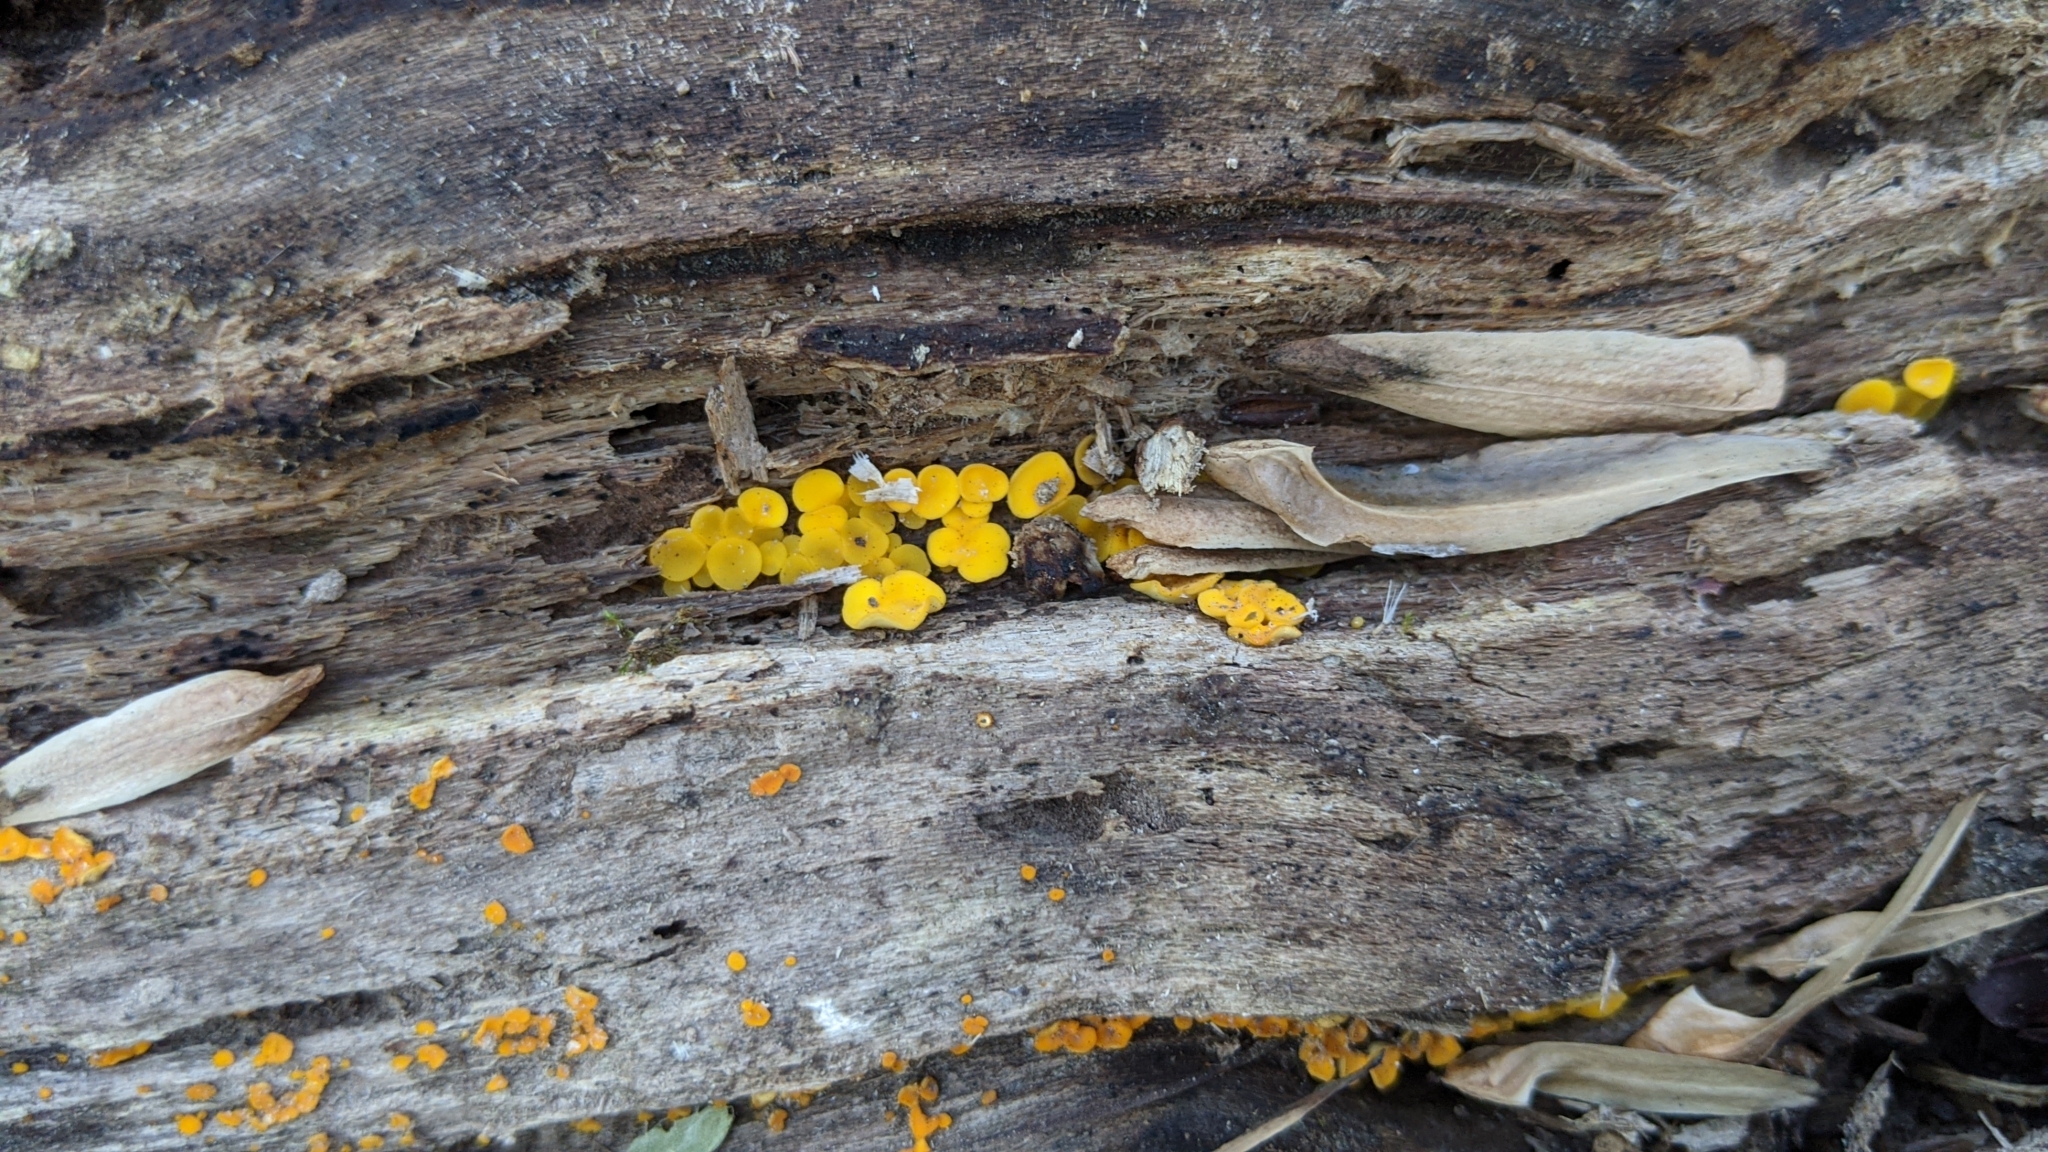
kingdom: Fungi
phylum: Ascomycota
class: Leotiomycetes
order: Helotiales
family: Pezizellaceae
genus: Calycina
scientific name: Calycina citrina
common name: Yellow fairy cups
